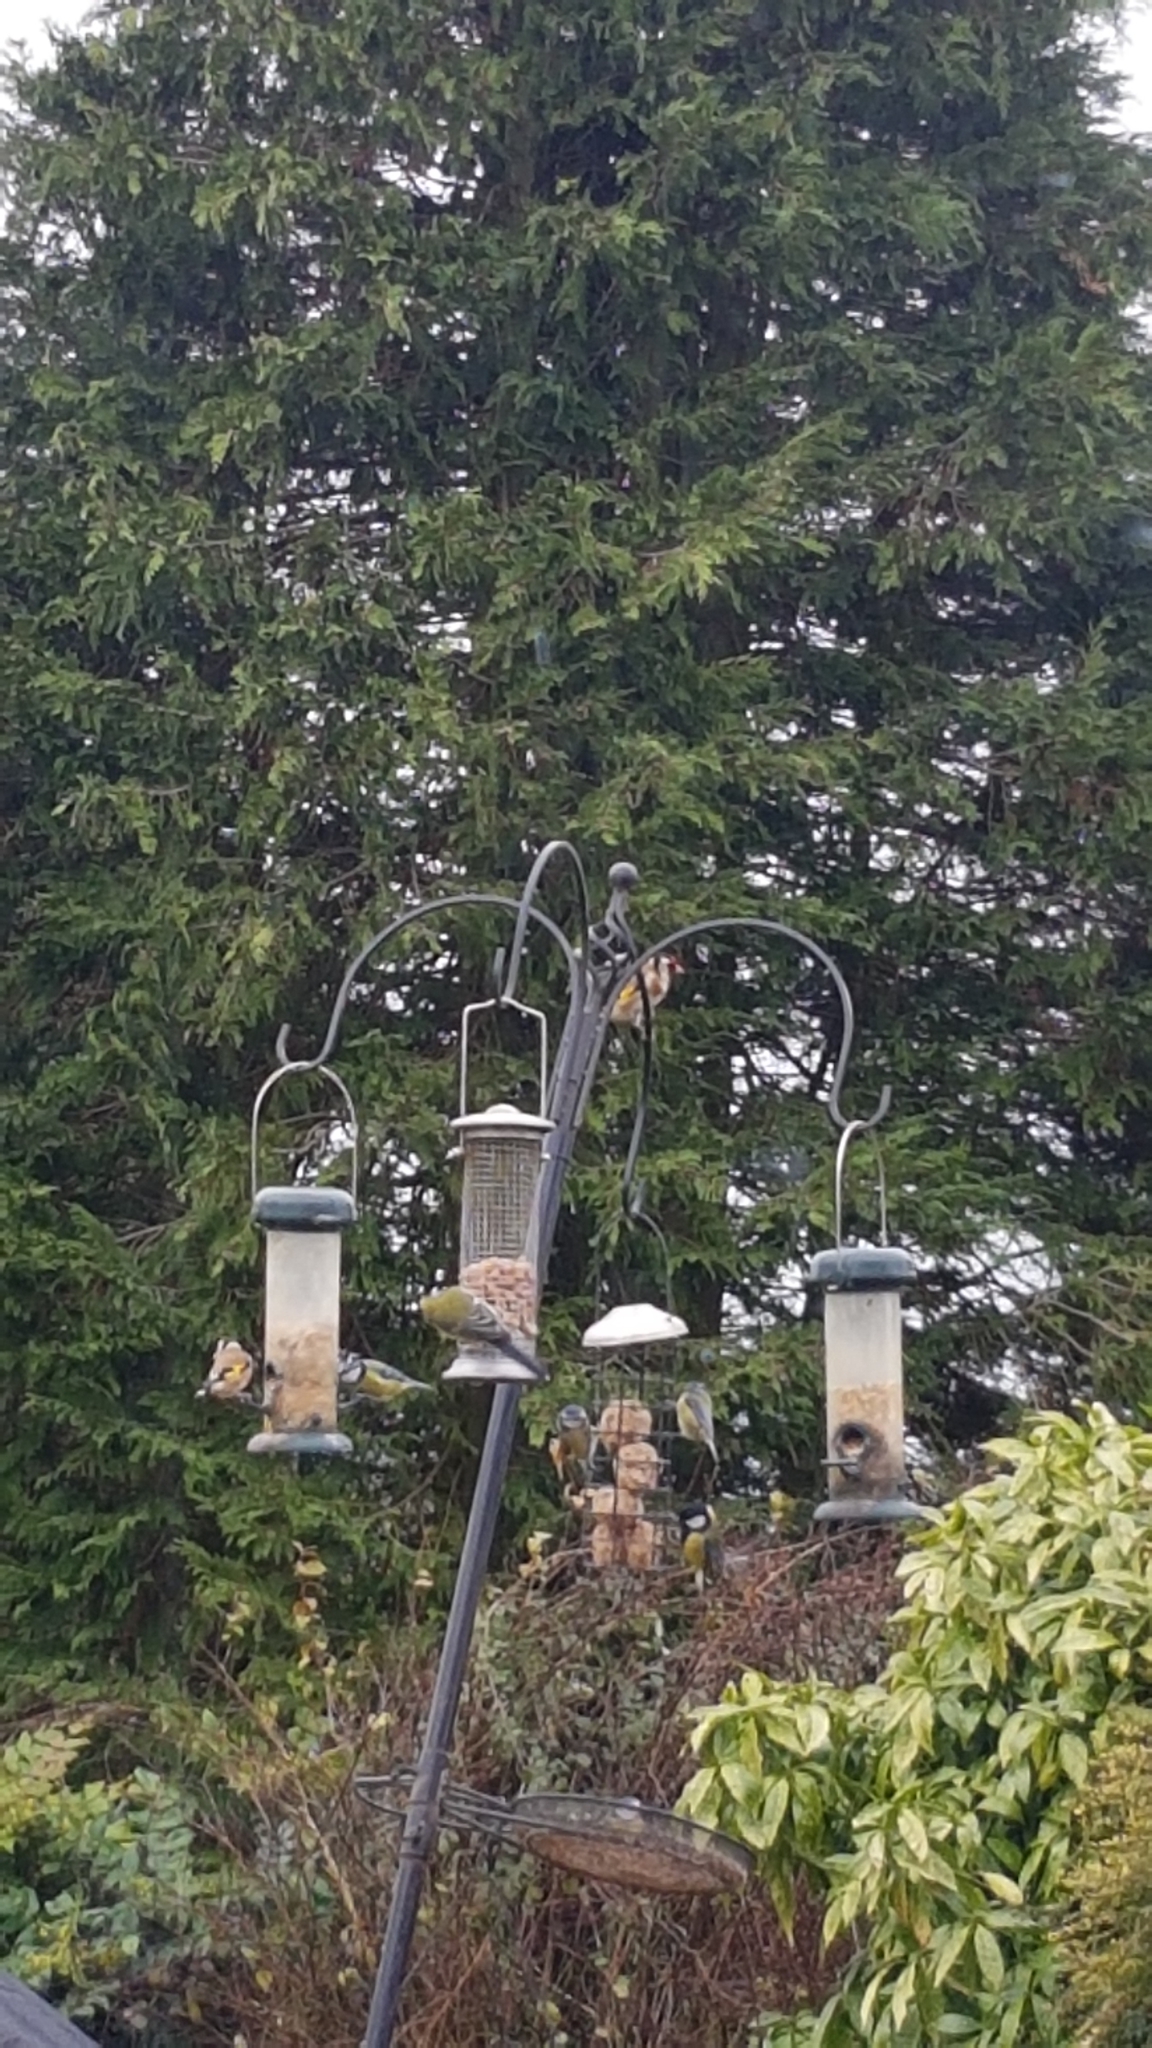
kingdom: Animalia
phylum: Chordata
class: Aves
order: Passeriformes
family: Fringillidae
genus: Carduelis
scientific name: Carduelis carduelis
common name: European goldfinch
